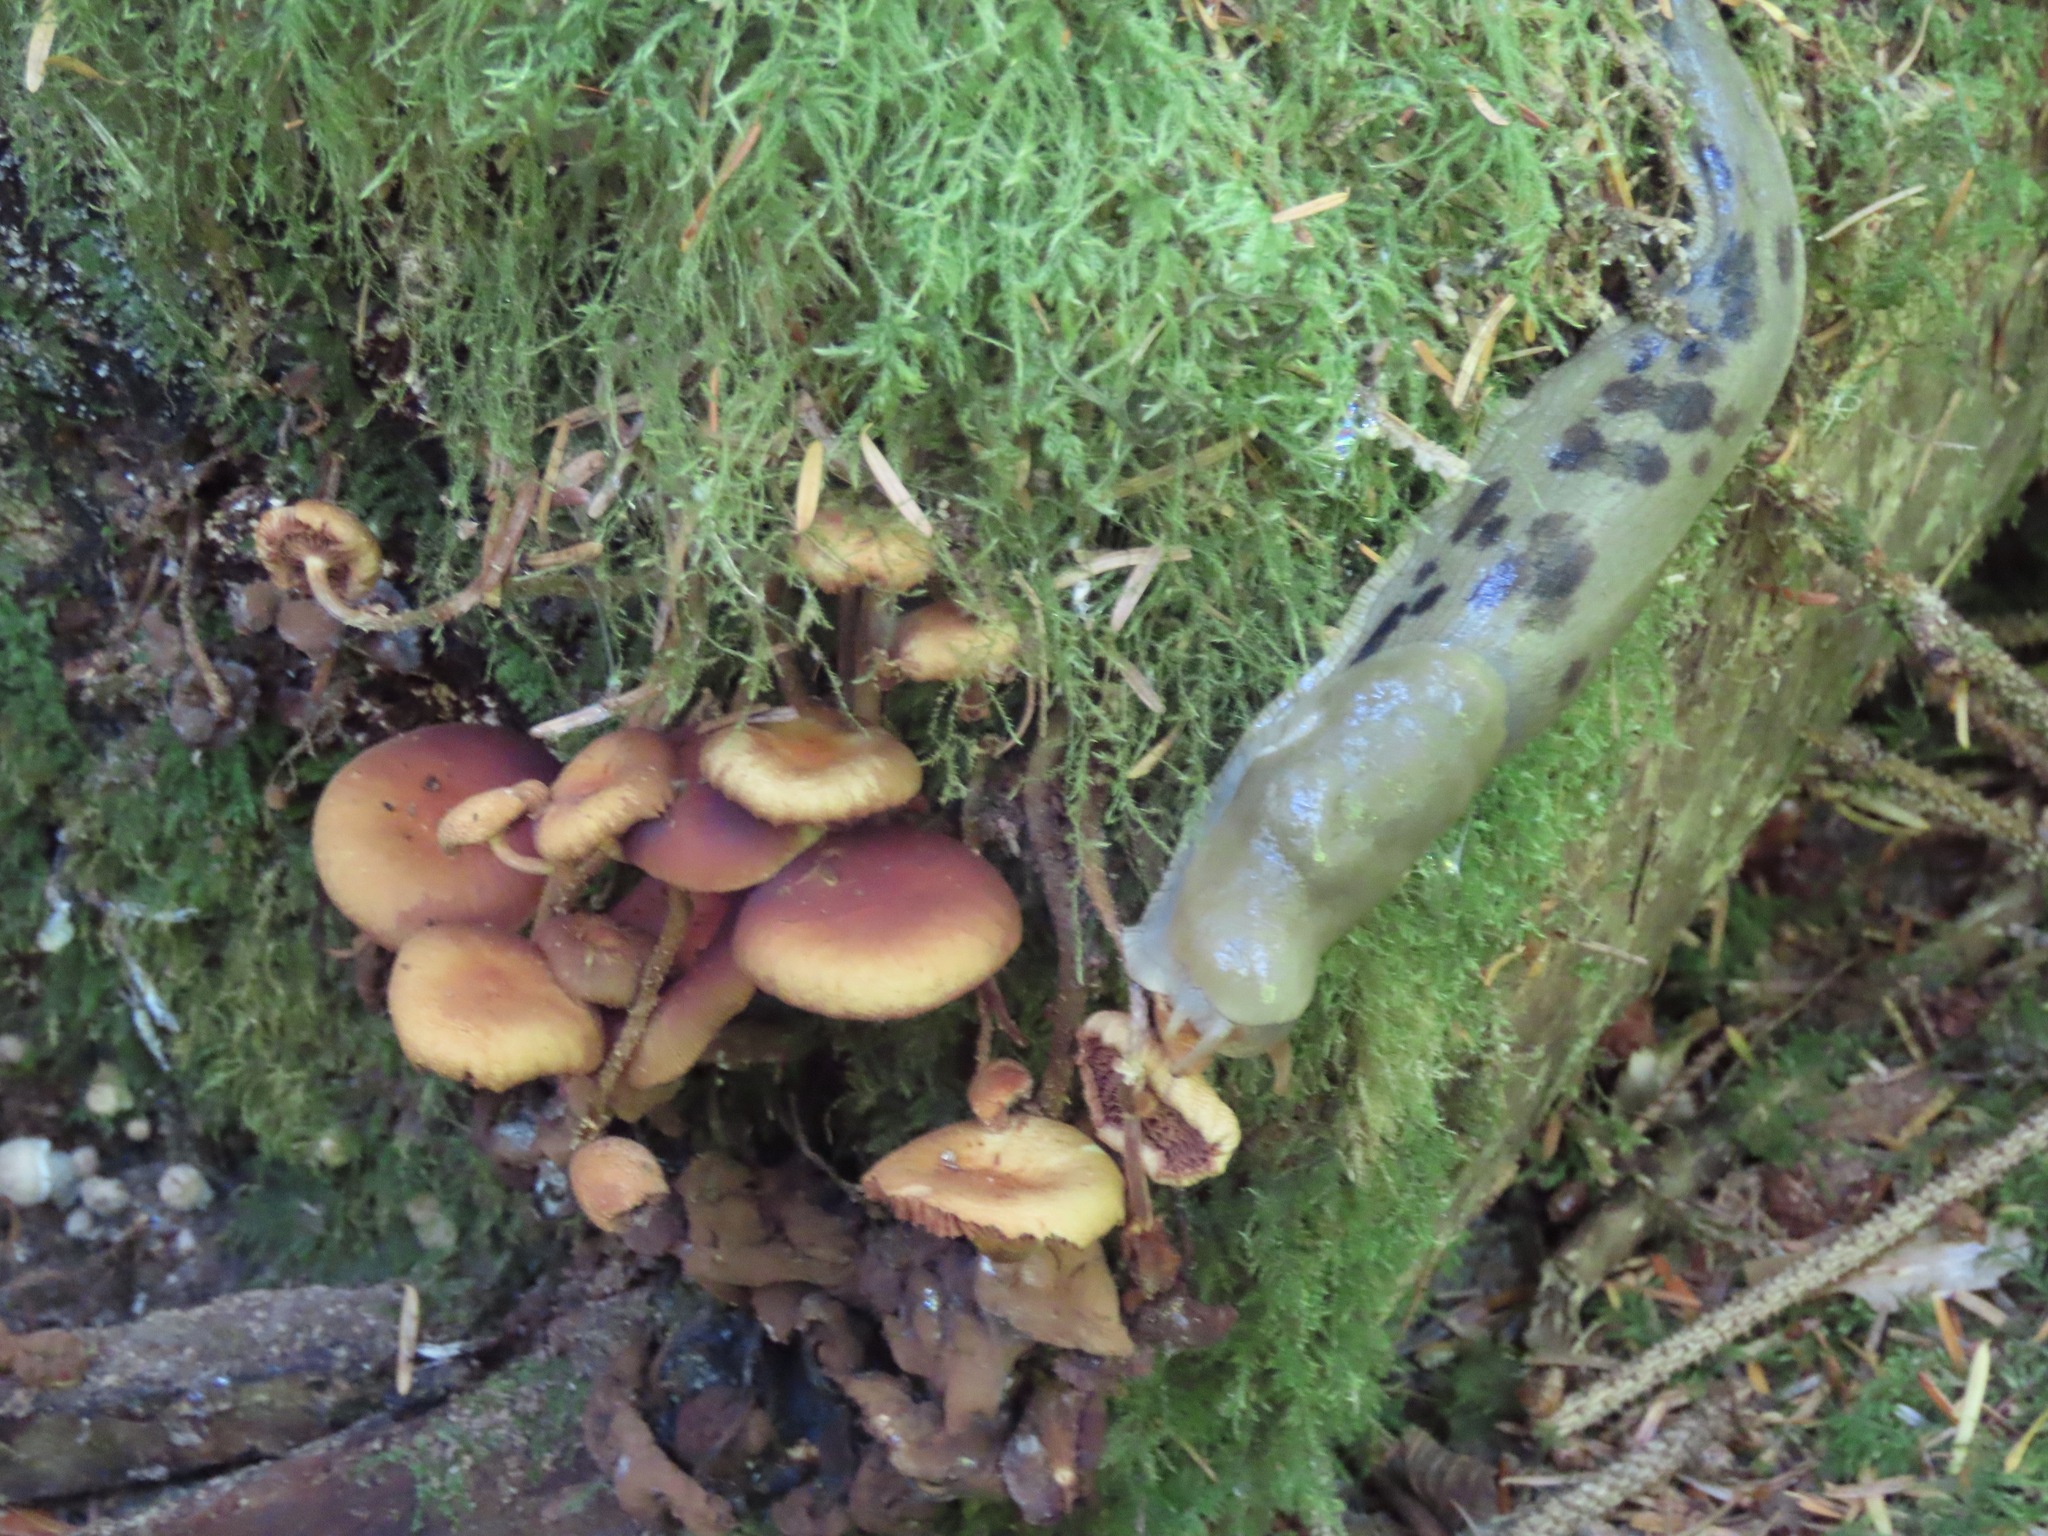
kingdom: Animalia
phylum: Mollusca
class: Gastropoda
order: Stylommatophora
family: Ariolimacidae
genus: Ariolimax
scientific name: Ariolimax columbianus
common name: Pacific banana slug
